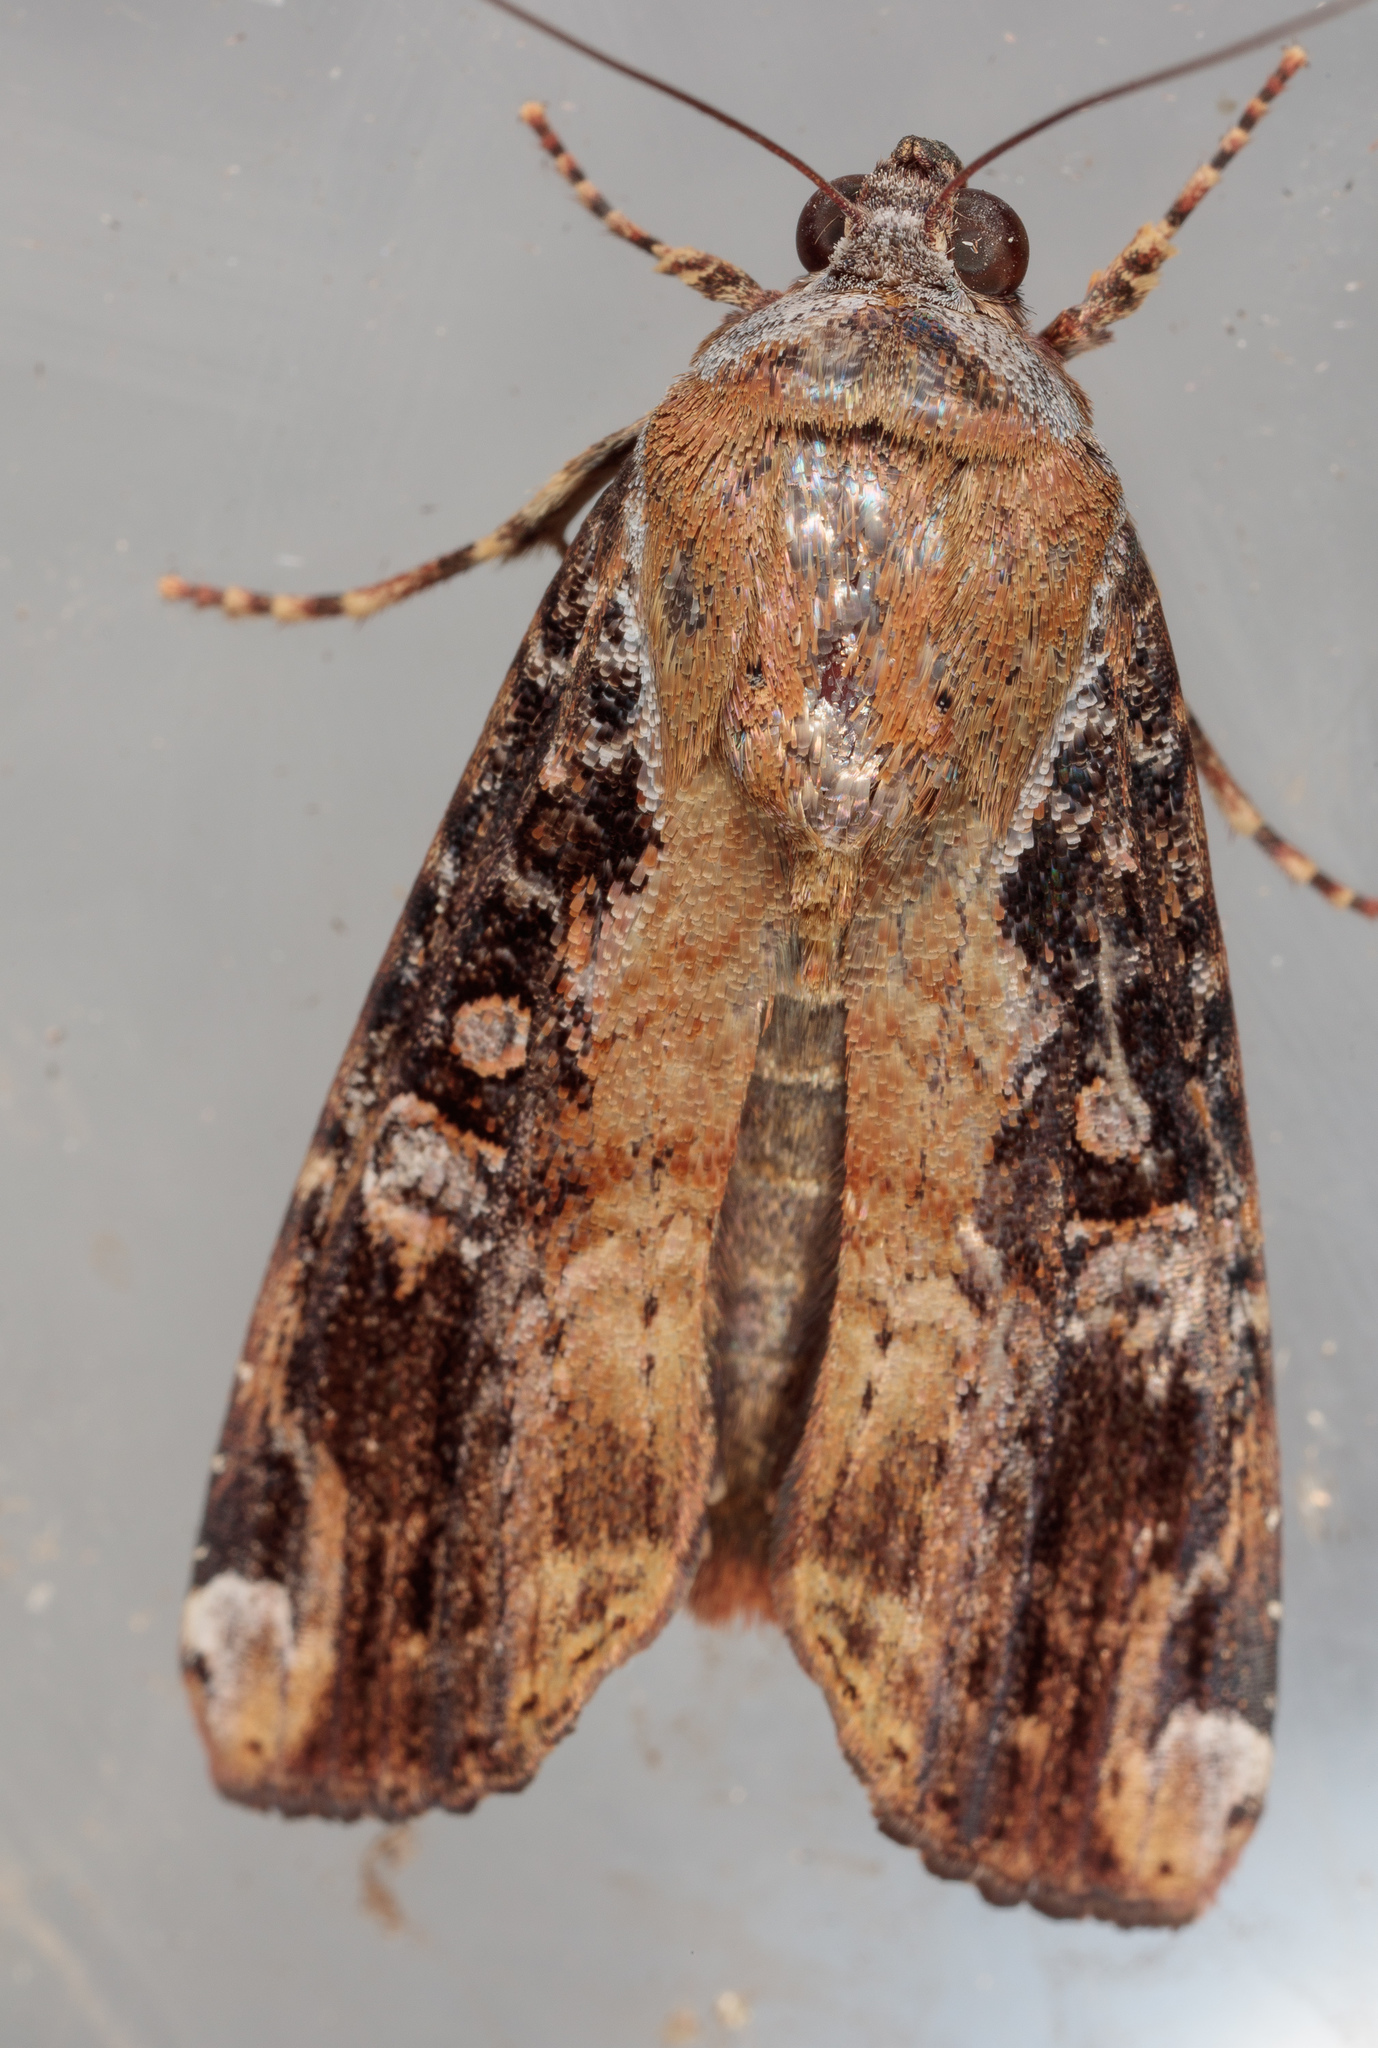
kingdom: Animalia
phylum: Arthropoda
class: Insecta
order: Lepidoptera
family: Noctuidae
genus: Magusa
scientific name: Magusa divaricata
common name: Orb narrow-winged moth
